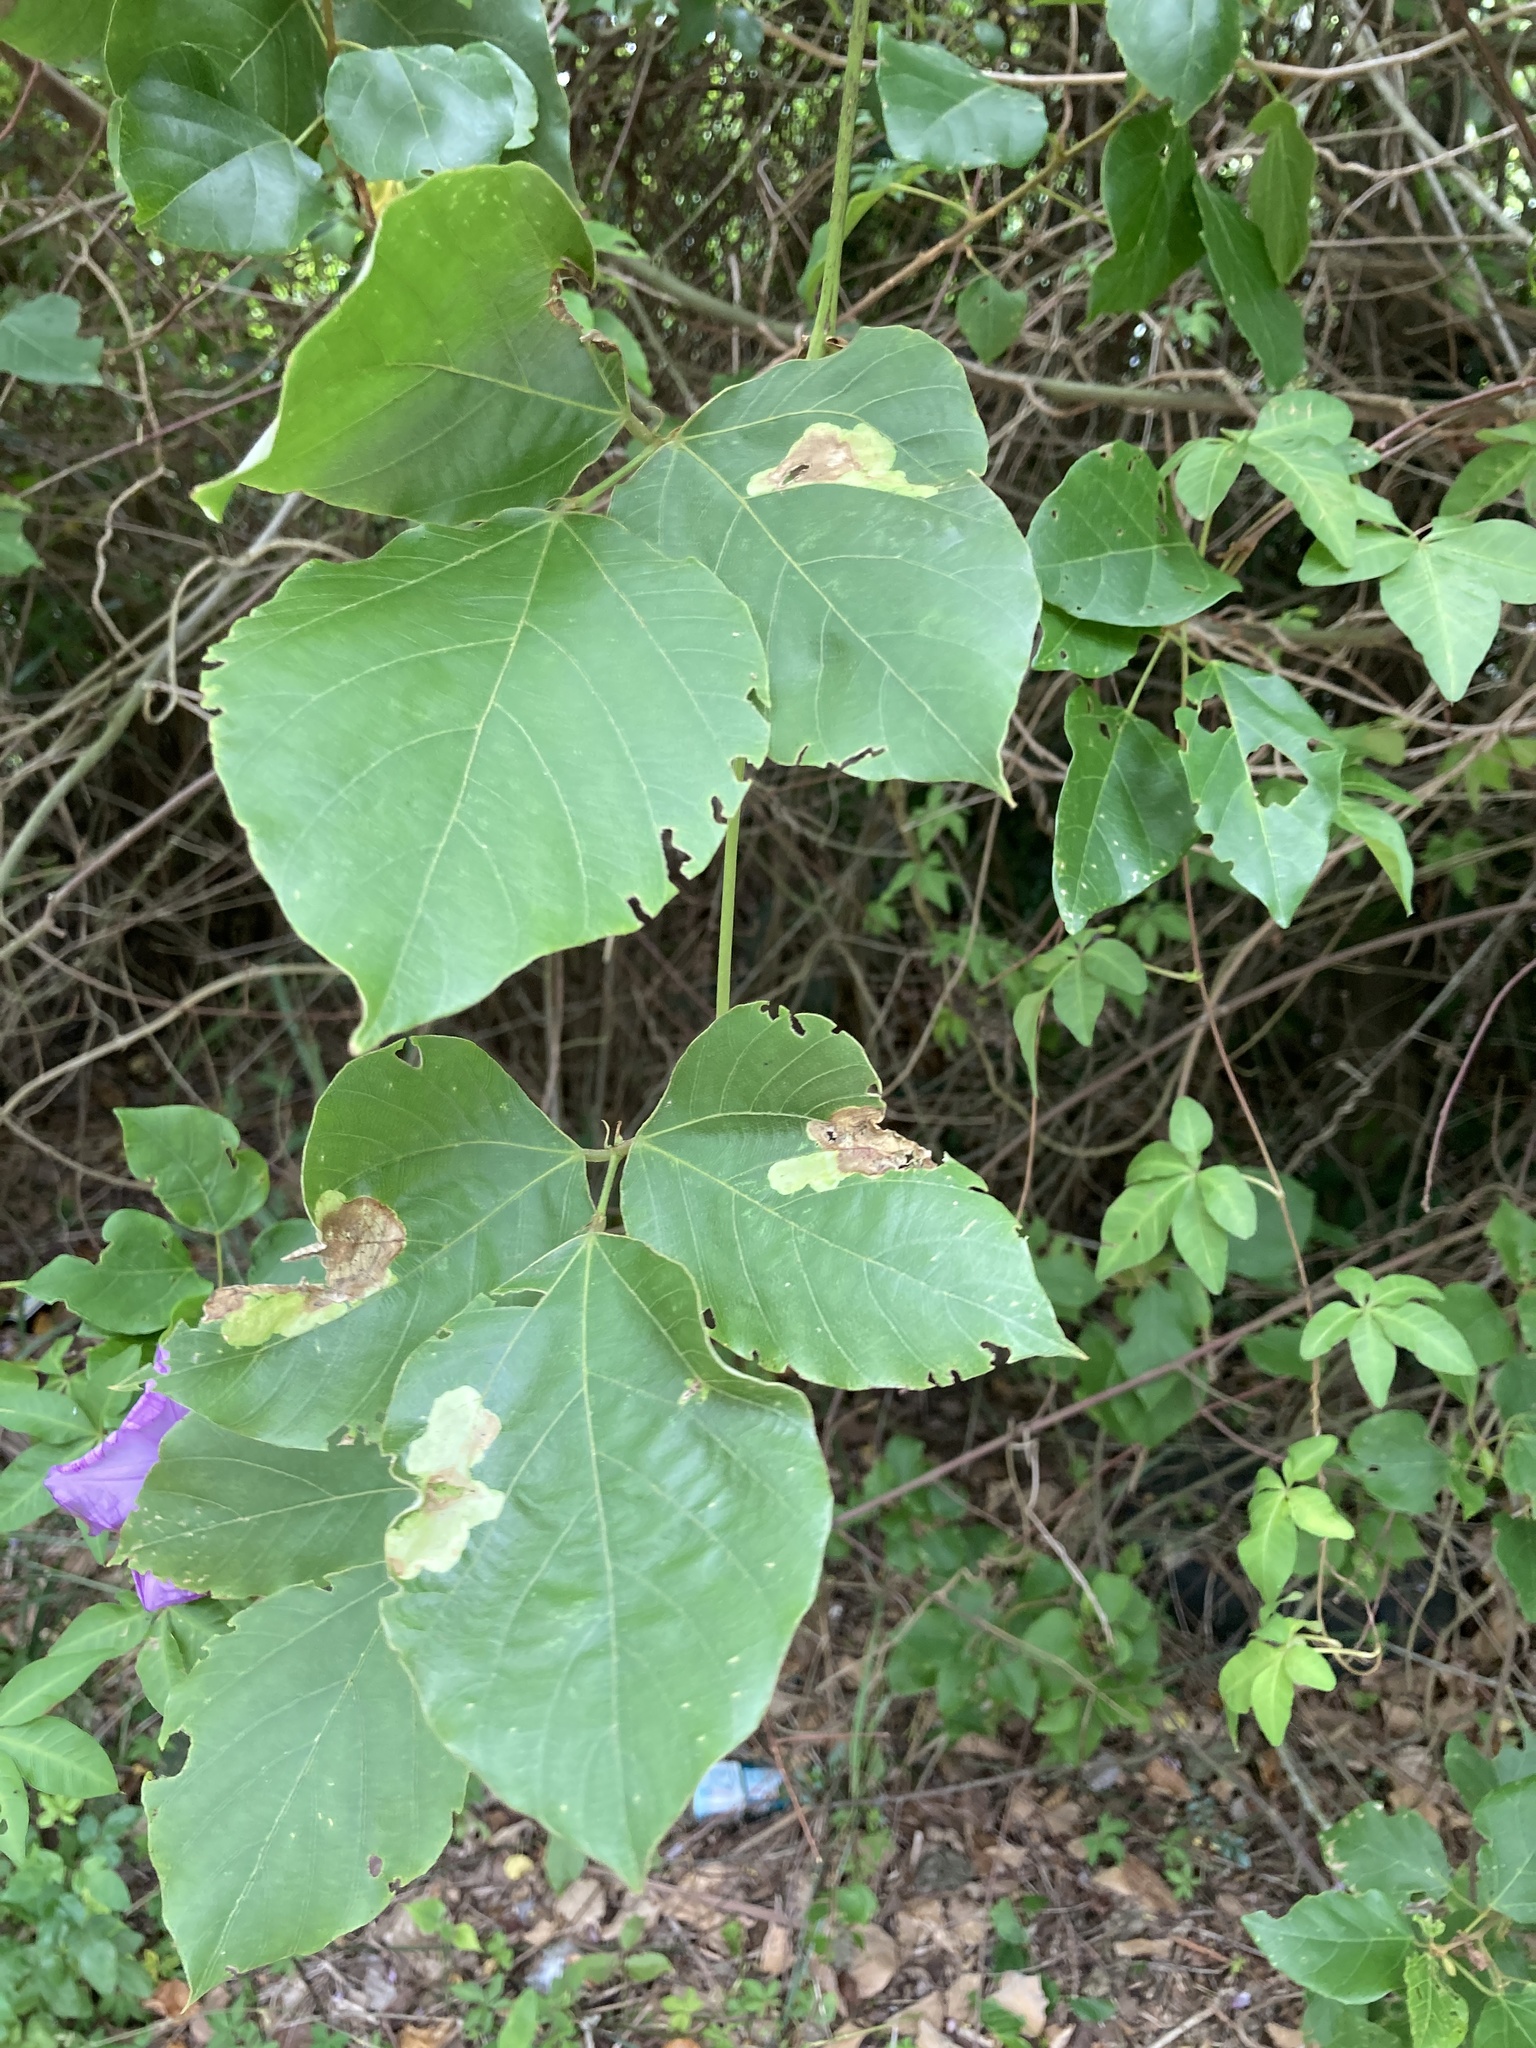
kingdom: Plantae
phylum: Tracheophyta
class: Magnoliopsida
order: Fabales
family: Fabaceae
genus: Pueraria
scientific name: Pueraria montana
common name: Kudzu
